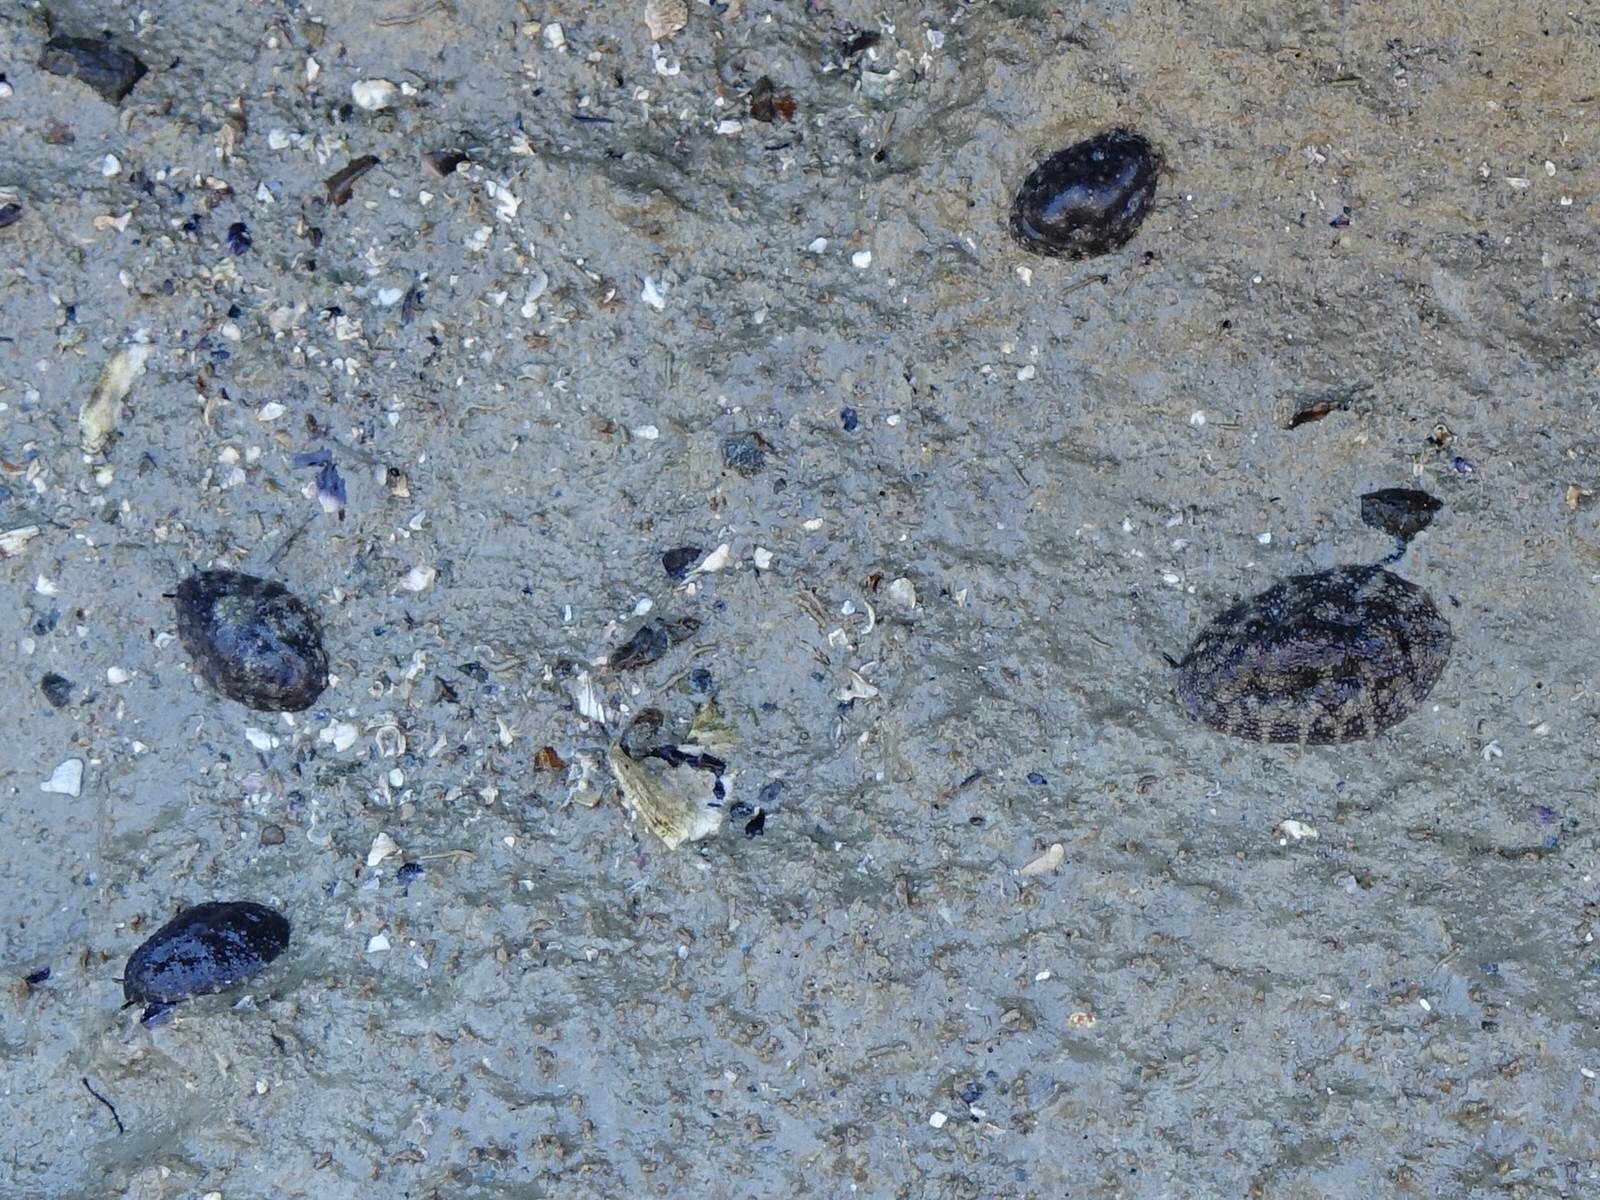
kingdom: Animalia
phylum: Mollusca
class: Gastropoda
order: Systellommatophora
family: Onchidiidae
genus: Onchidella
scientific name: Onchidella nigricans
